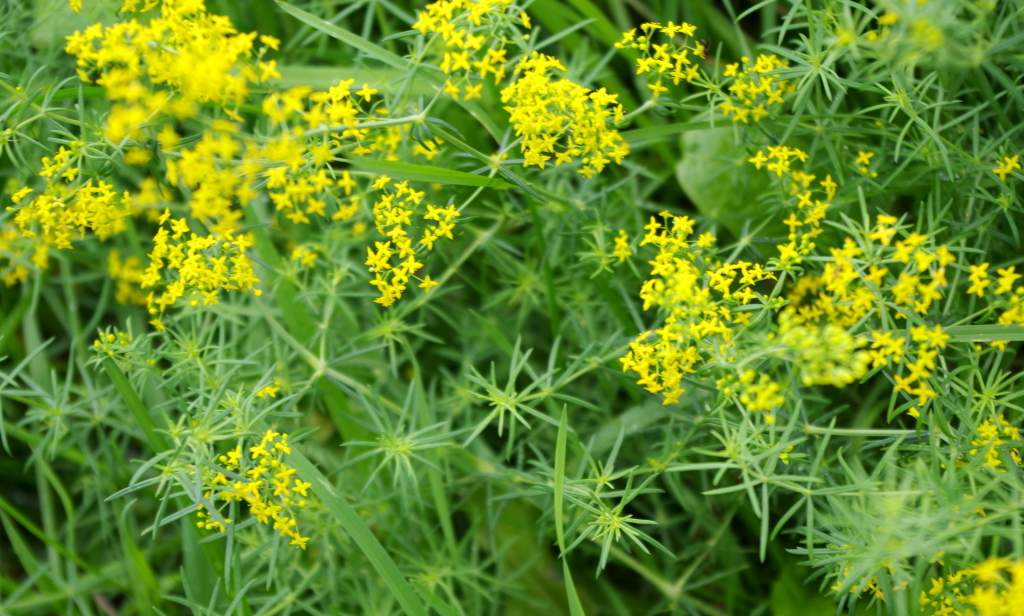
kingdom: Plantae
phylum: Tracheophyta
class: Magnoliopsida
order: Gentianales
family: Rubiaceae
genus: Galium
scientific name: Galium verum
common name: Lady's bedstraw
